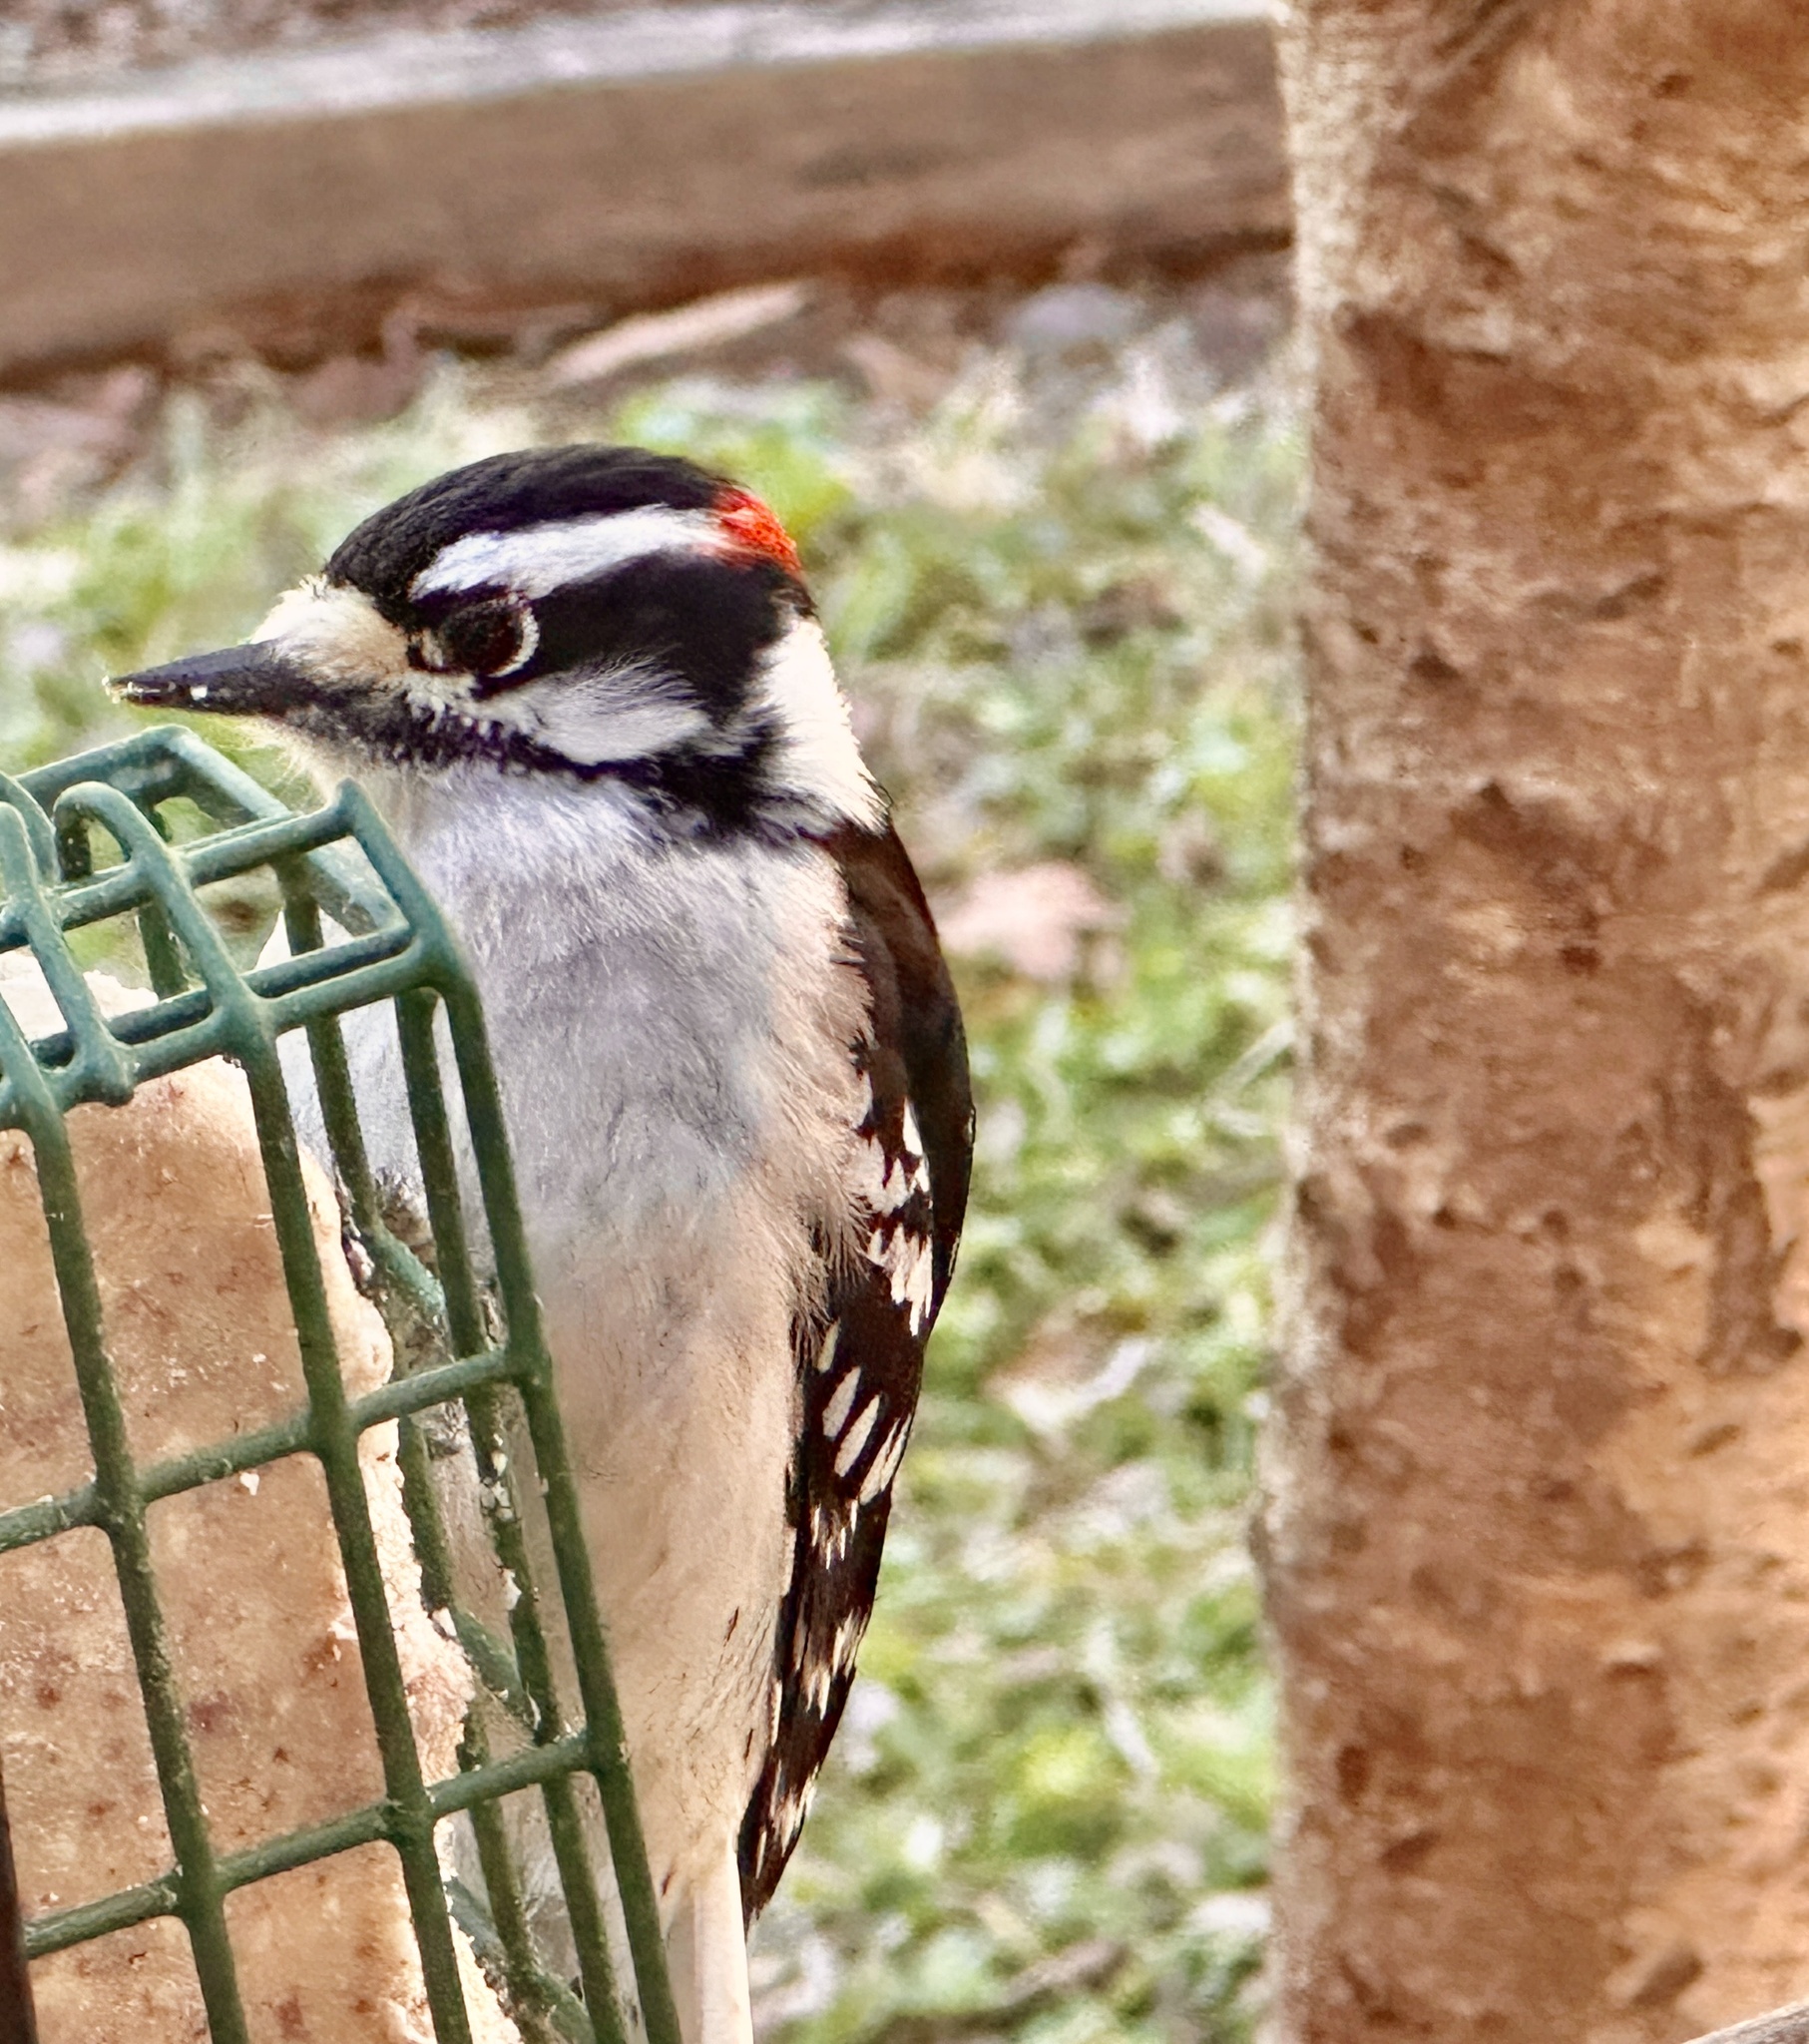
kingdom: Animalia
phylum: Chordata
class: Aves
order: Piciformes
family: Picidae
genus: Dryobates
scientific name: Dryobates pubescens
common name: Downy woodpecker
